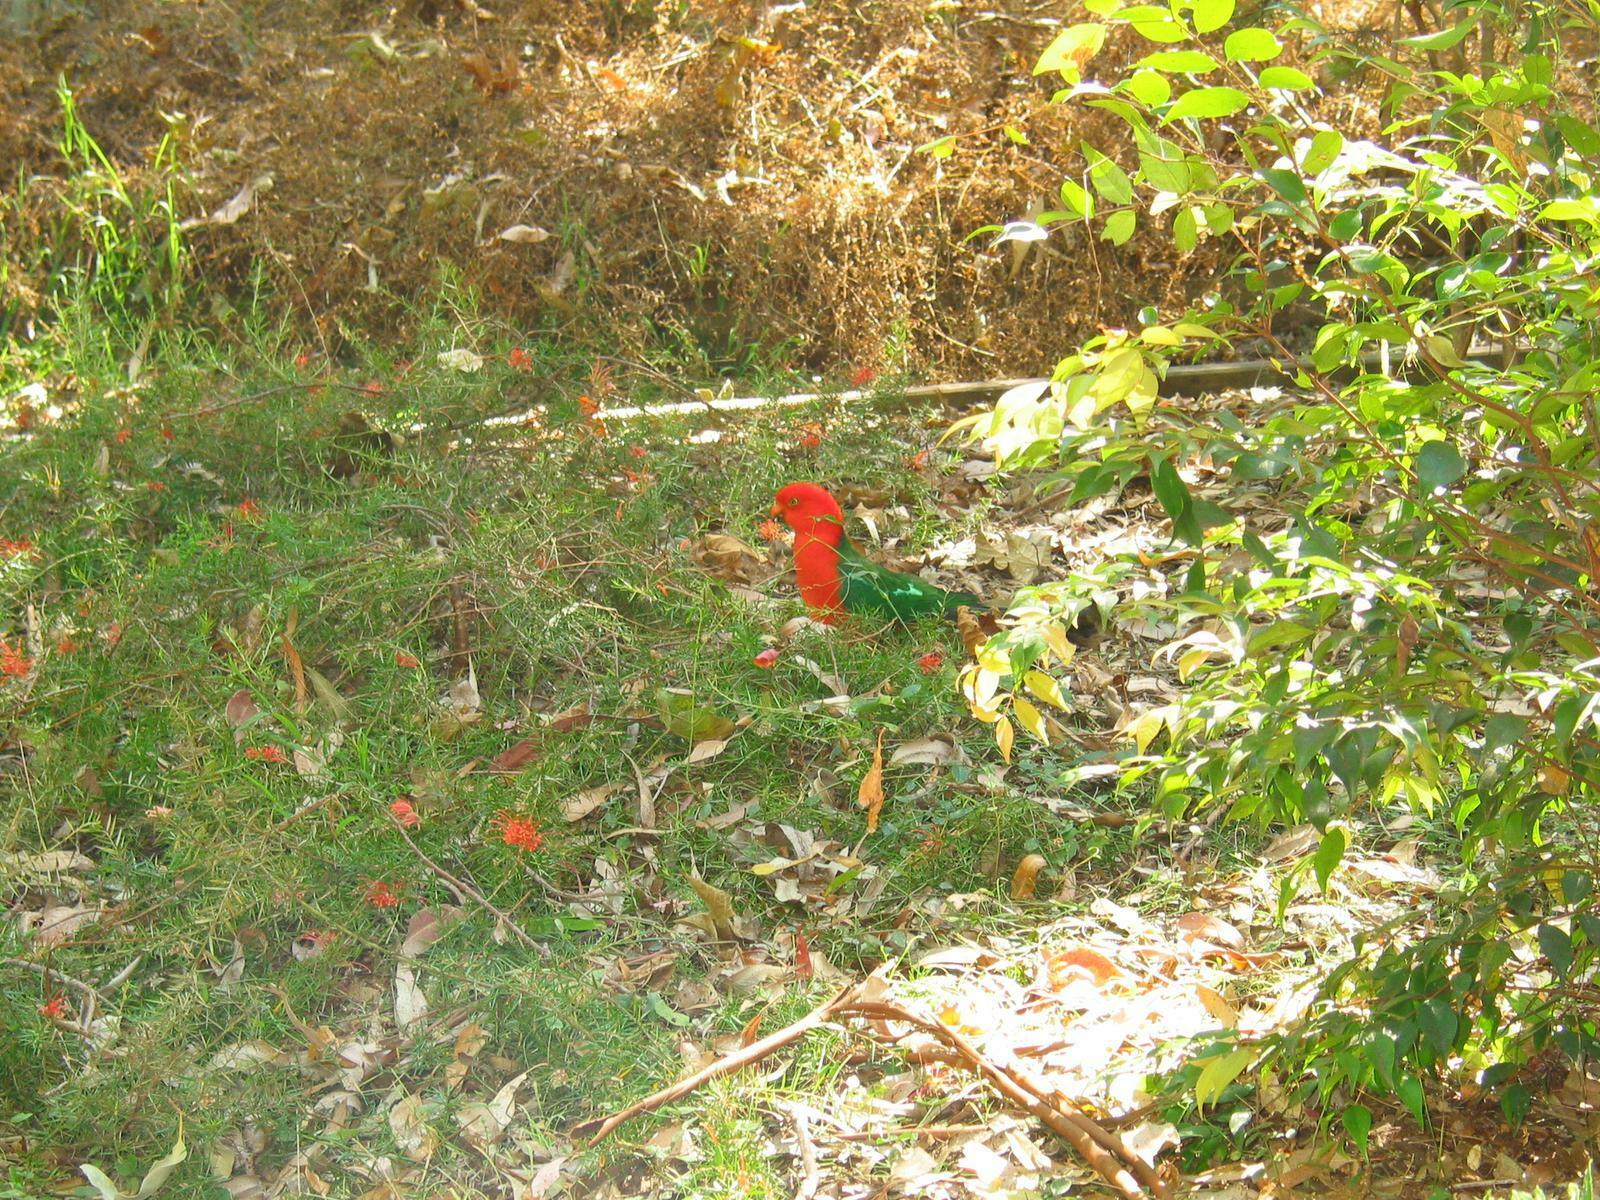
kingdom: Animalia
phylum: Chordata
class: Aves
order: Psittaciformes
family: Psittacidae
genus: Alisterus
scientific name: Alisterus scapularis
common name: Australian king parrot
